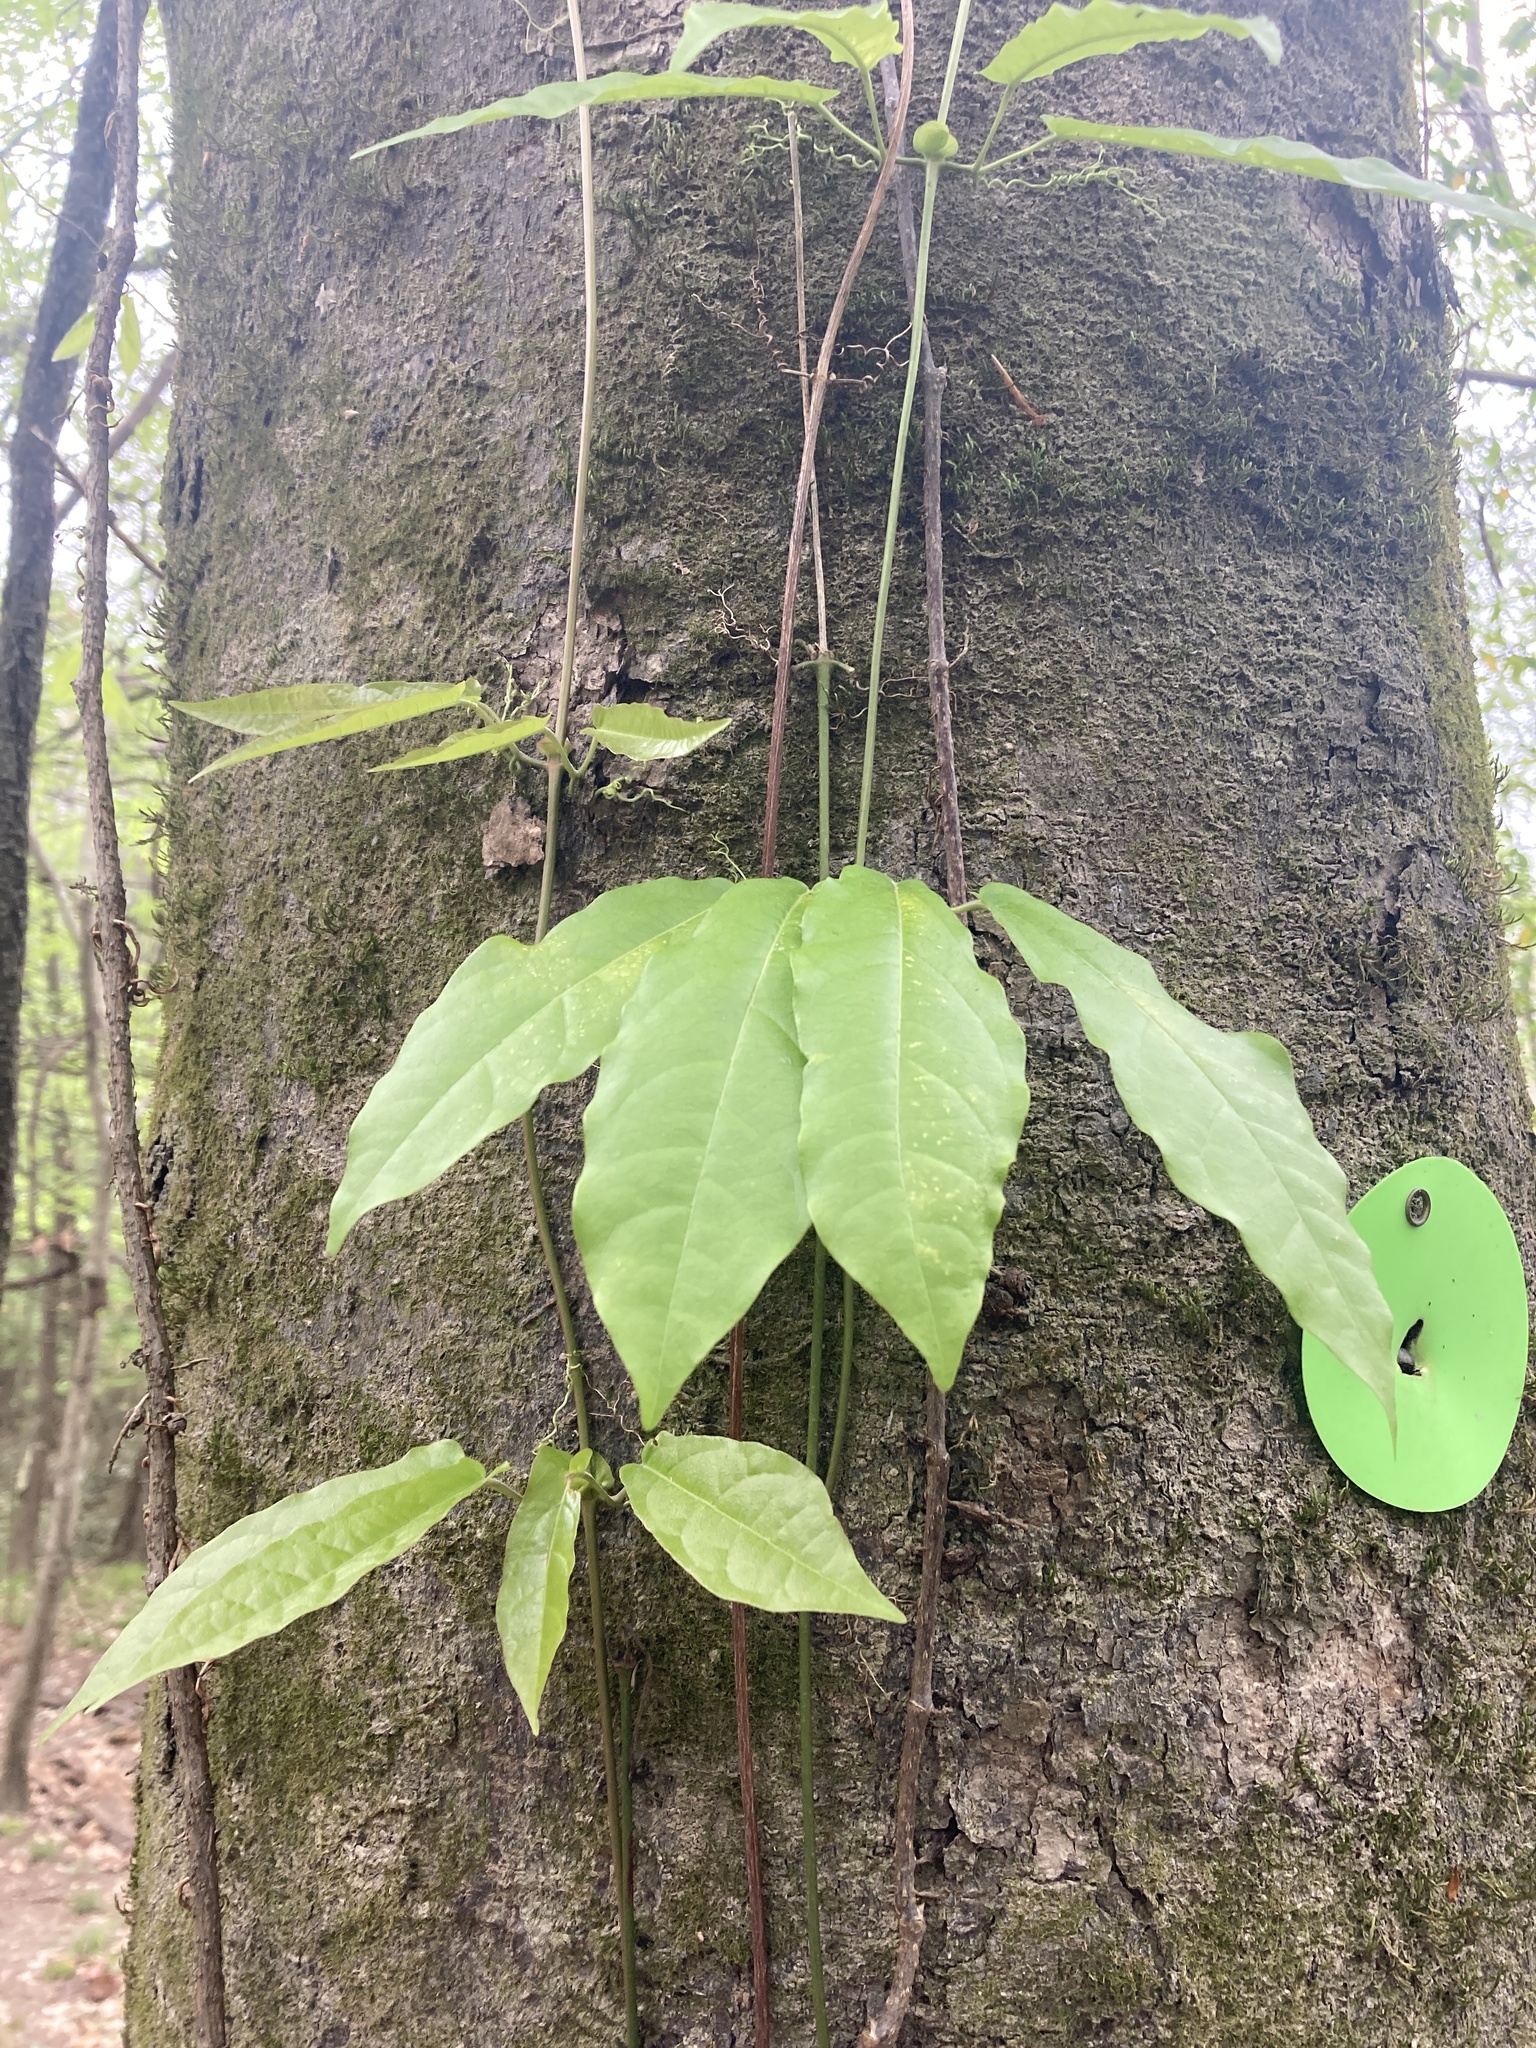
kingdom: Plantae
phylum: Tracheophyta
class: Magnoliopsida
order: Lamiales
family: Bignoniaceae
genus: Bignonia
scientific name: Bignonia capreolata
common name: Crossvine
